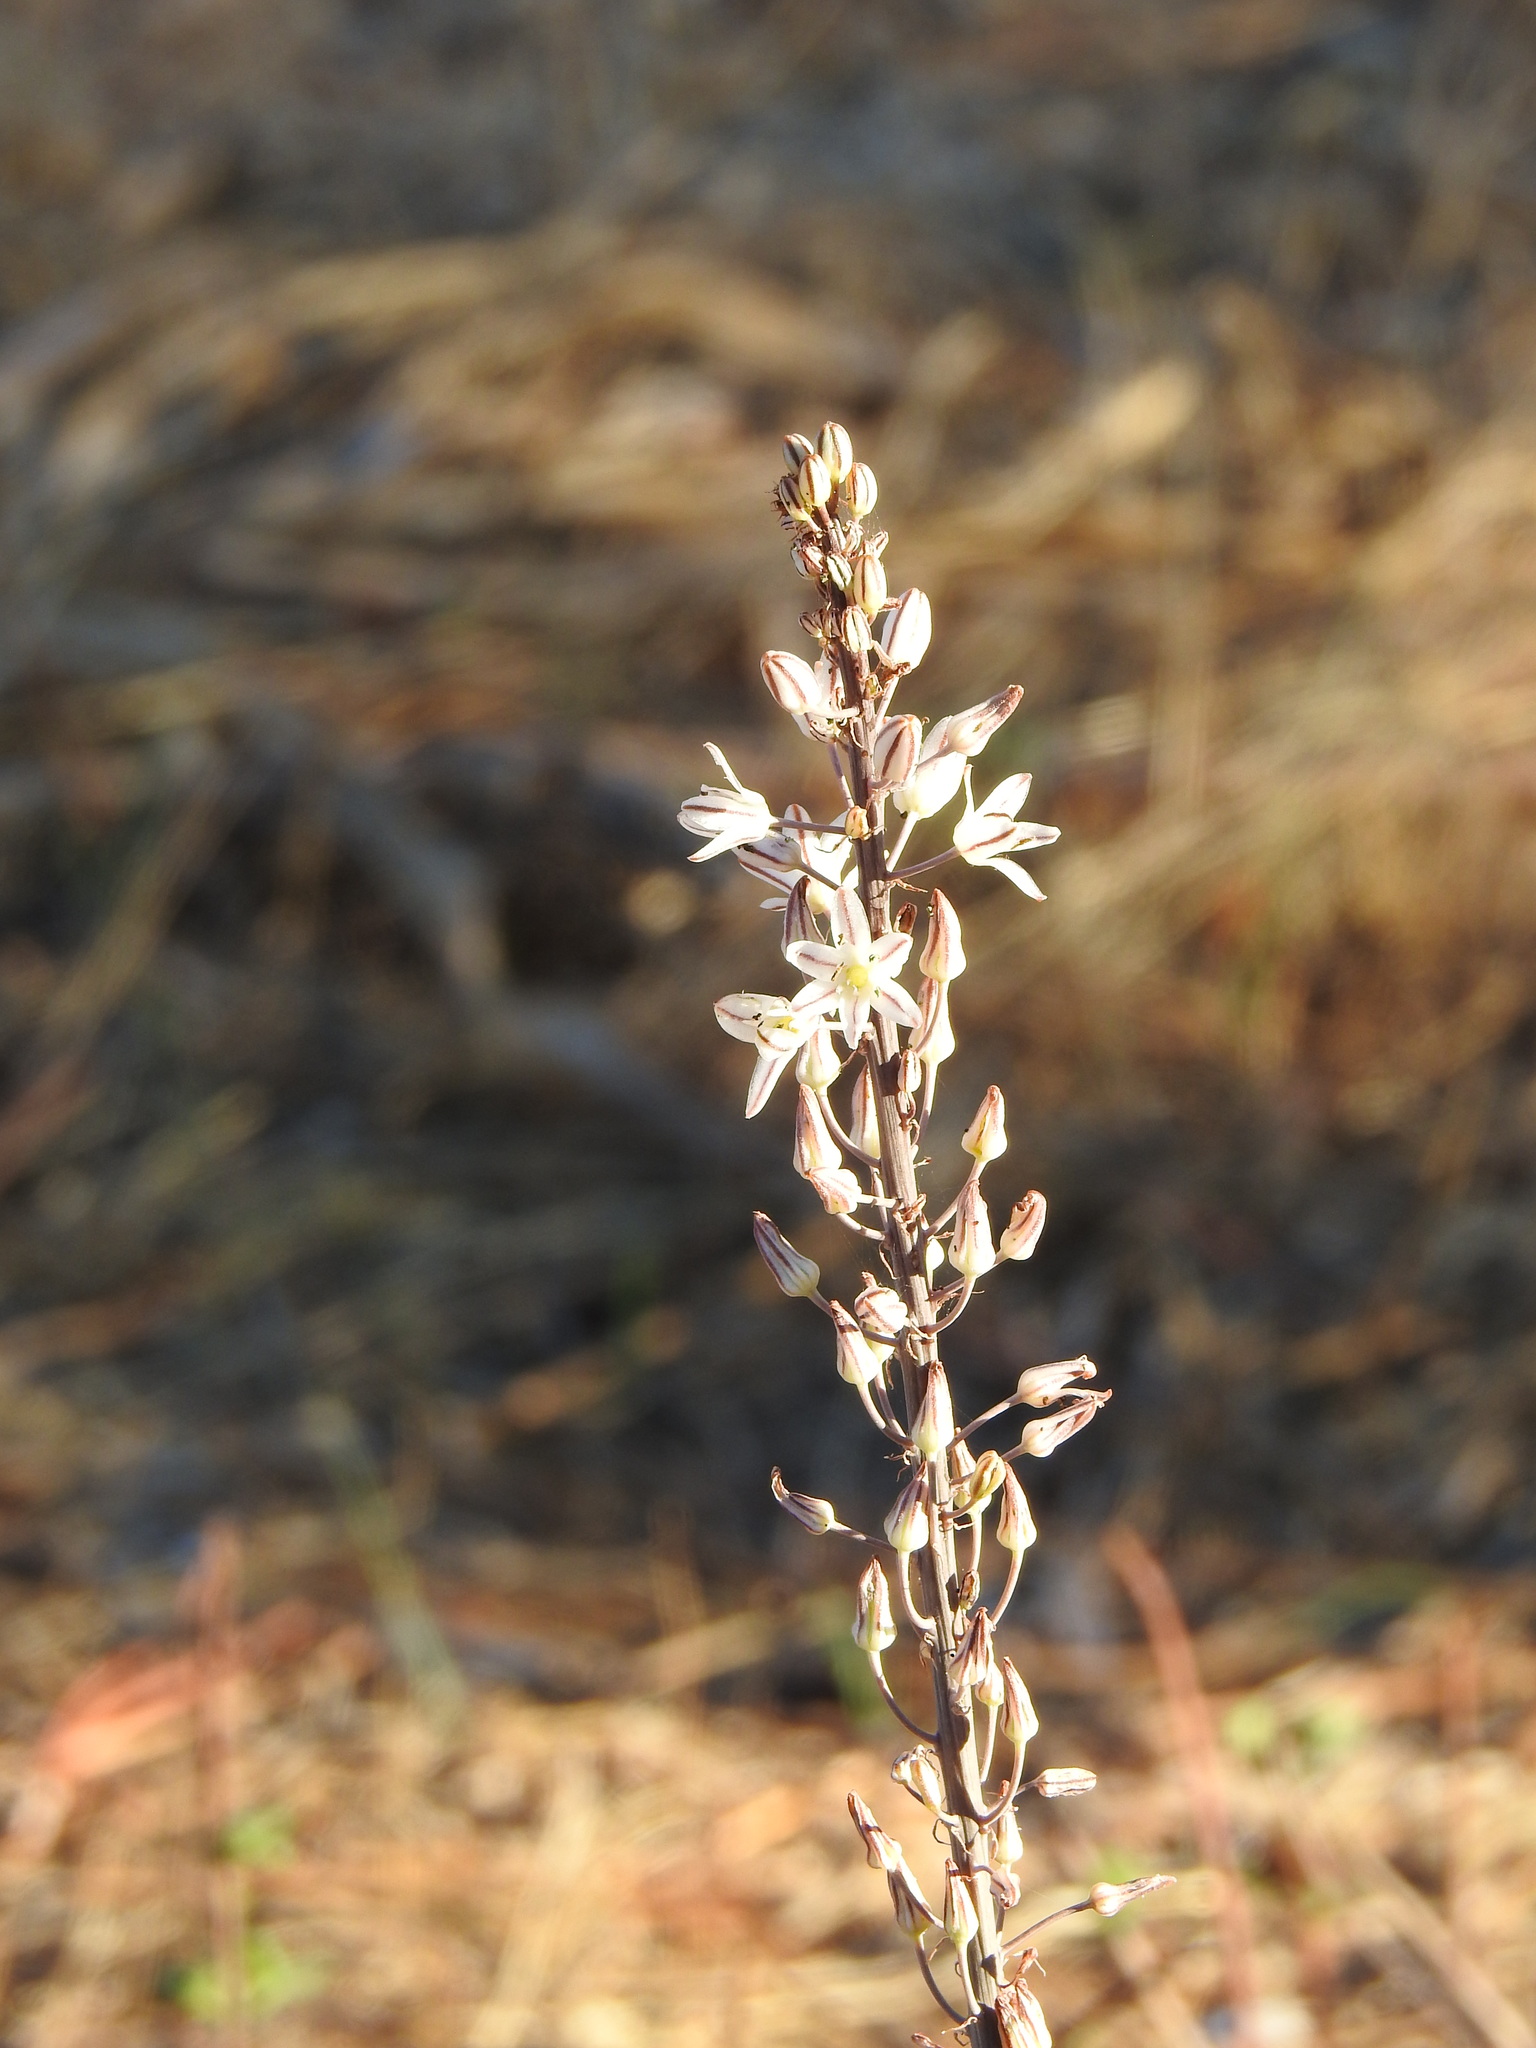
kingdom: Plantae
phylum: Tracheophyta
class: Liliopsida
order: Asparagales
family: Asparagaceae
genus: Drimia
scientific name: Drimia maritima
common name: Maritime squill
